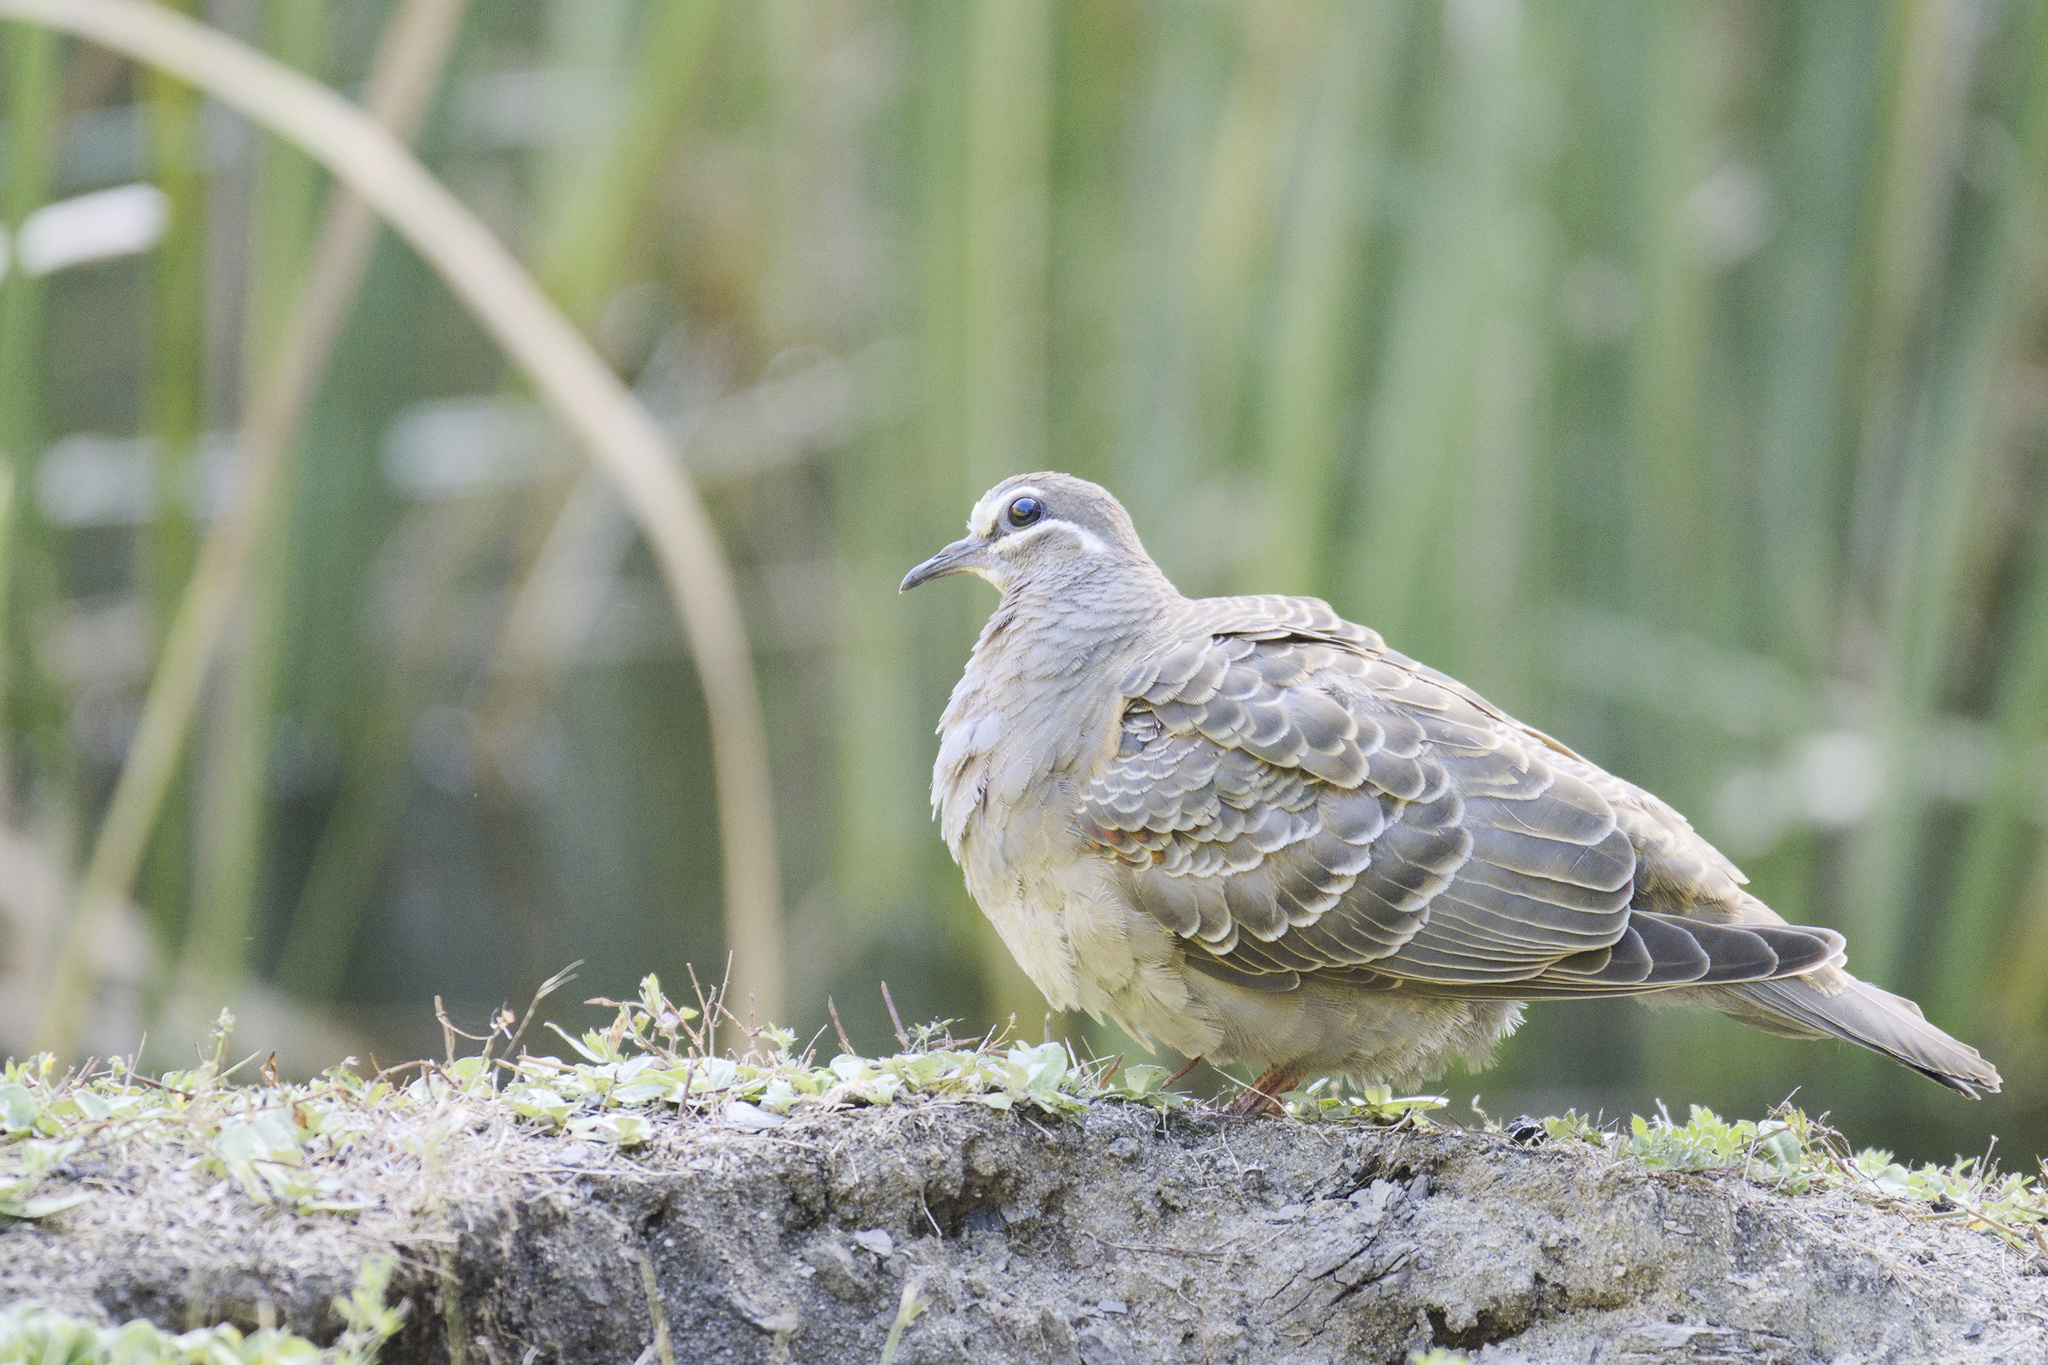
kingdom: Animalia
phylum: Chordata
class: Aves
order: Columbiformes
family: Columbidae
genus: Phaps
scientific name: Phaps chalcoptera
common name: Common bronzewing
